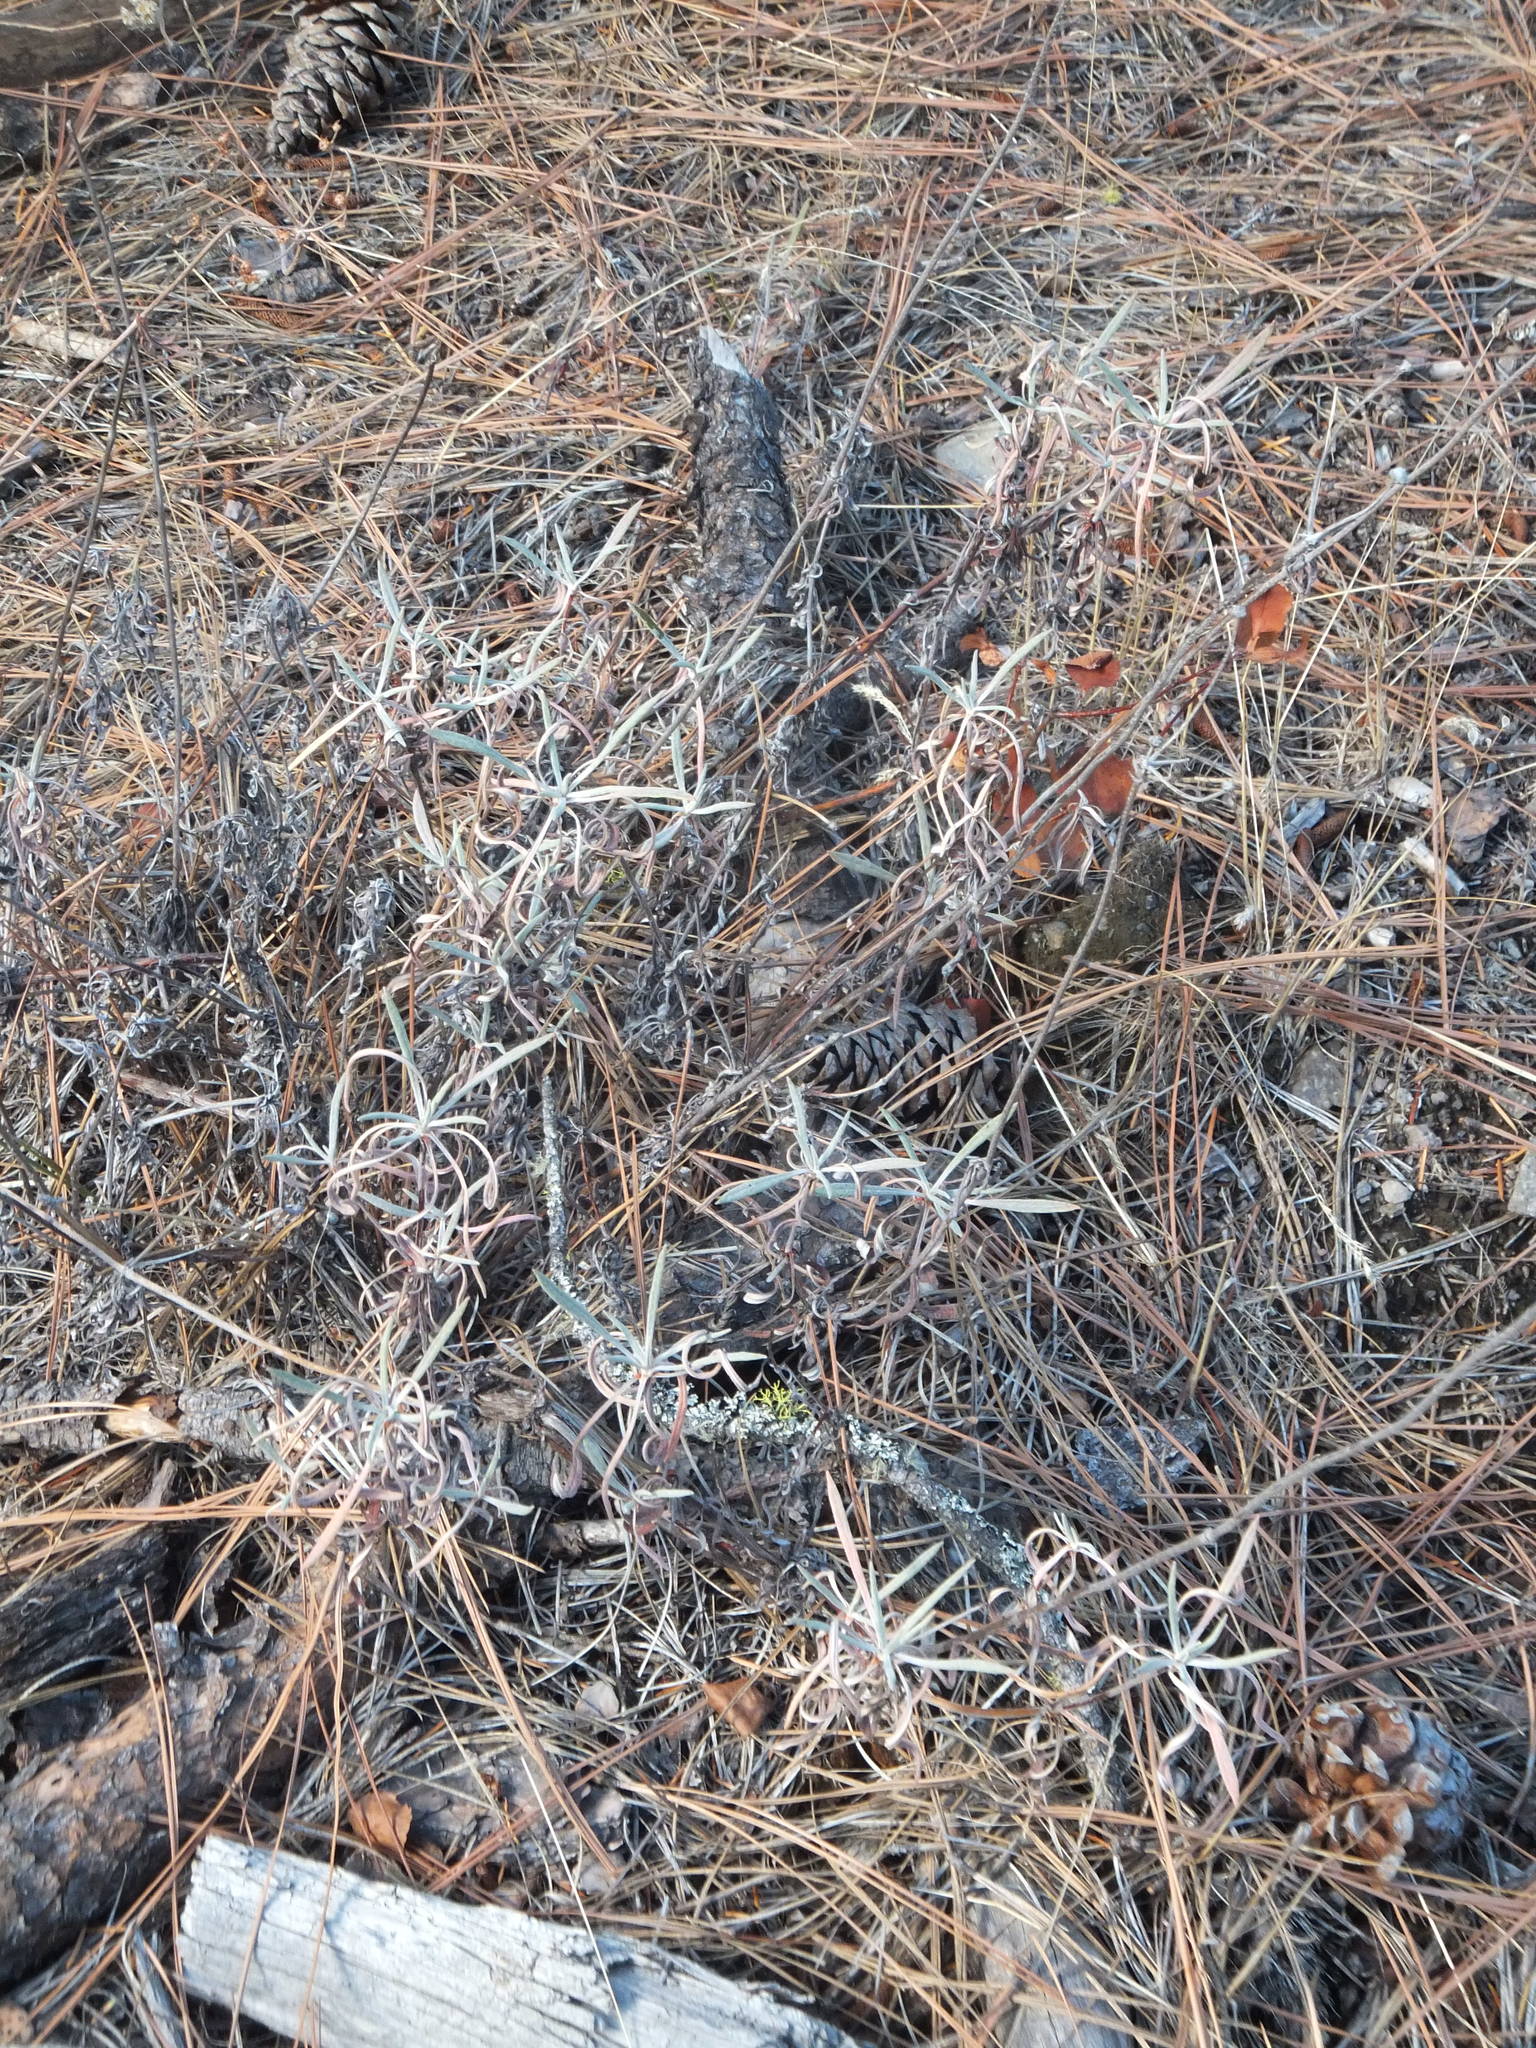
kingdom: Plantae
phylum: Tracheophyta
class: Magnoliopsida
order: Caryophyllales
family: Polygonaceae
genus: Eriogonum
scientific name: Eriogonum heracleoides
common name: Wyeth's buckwheat
